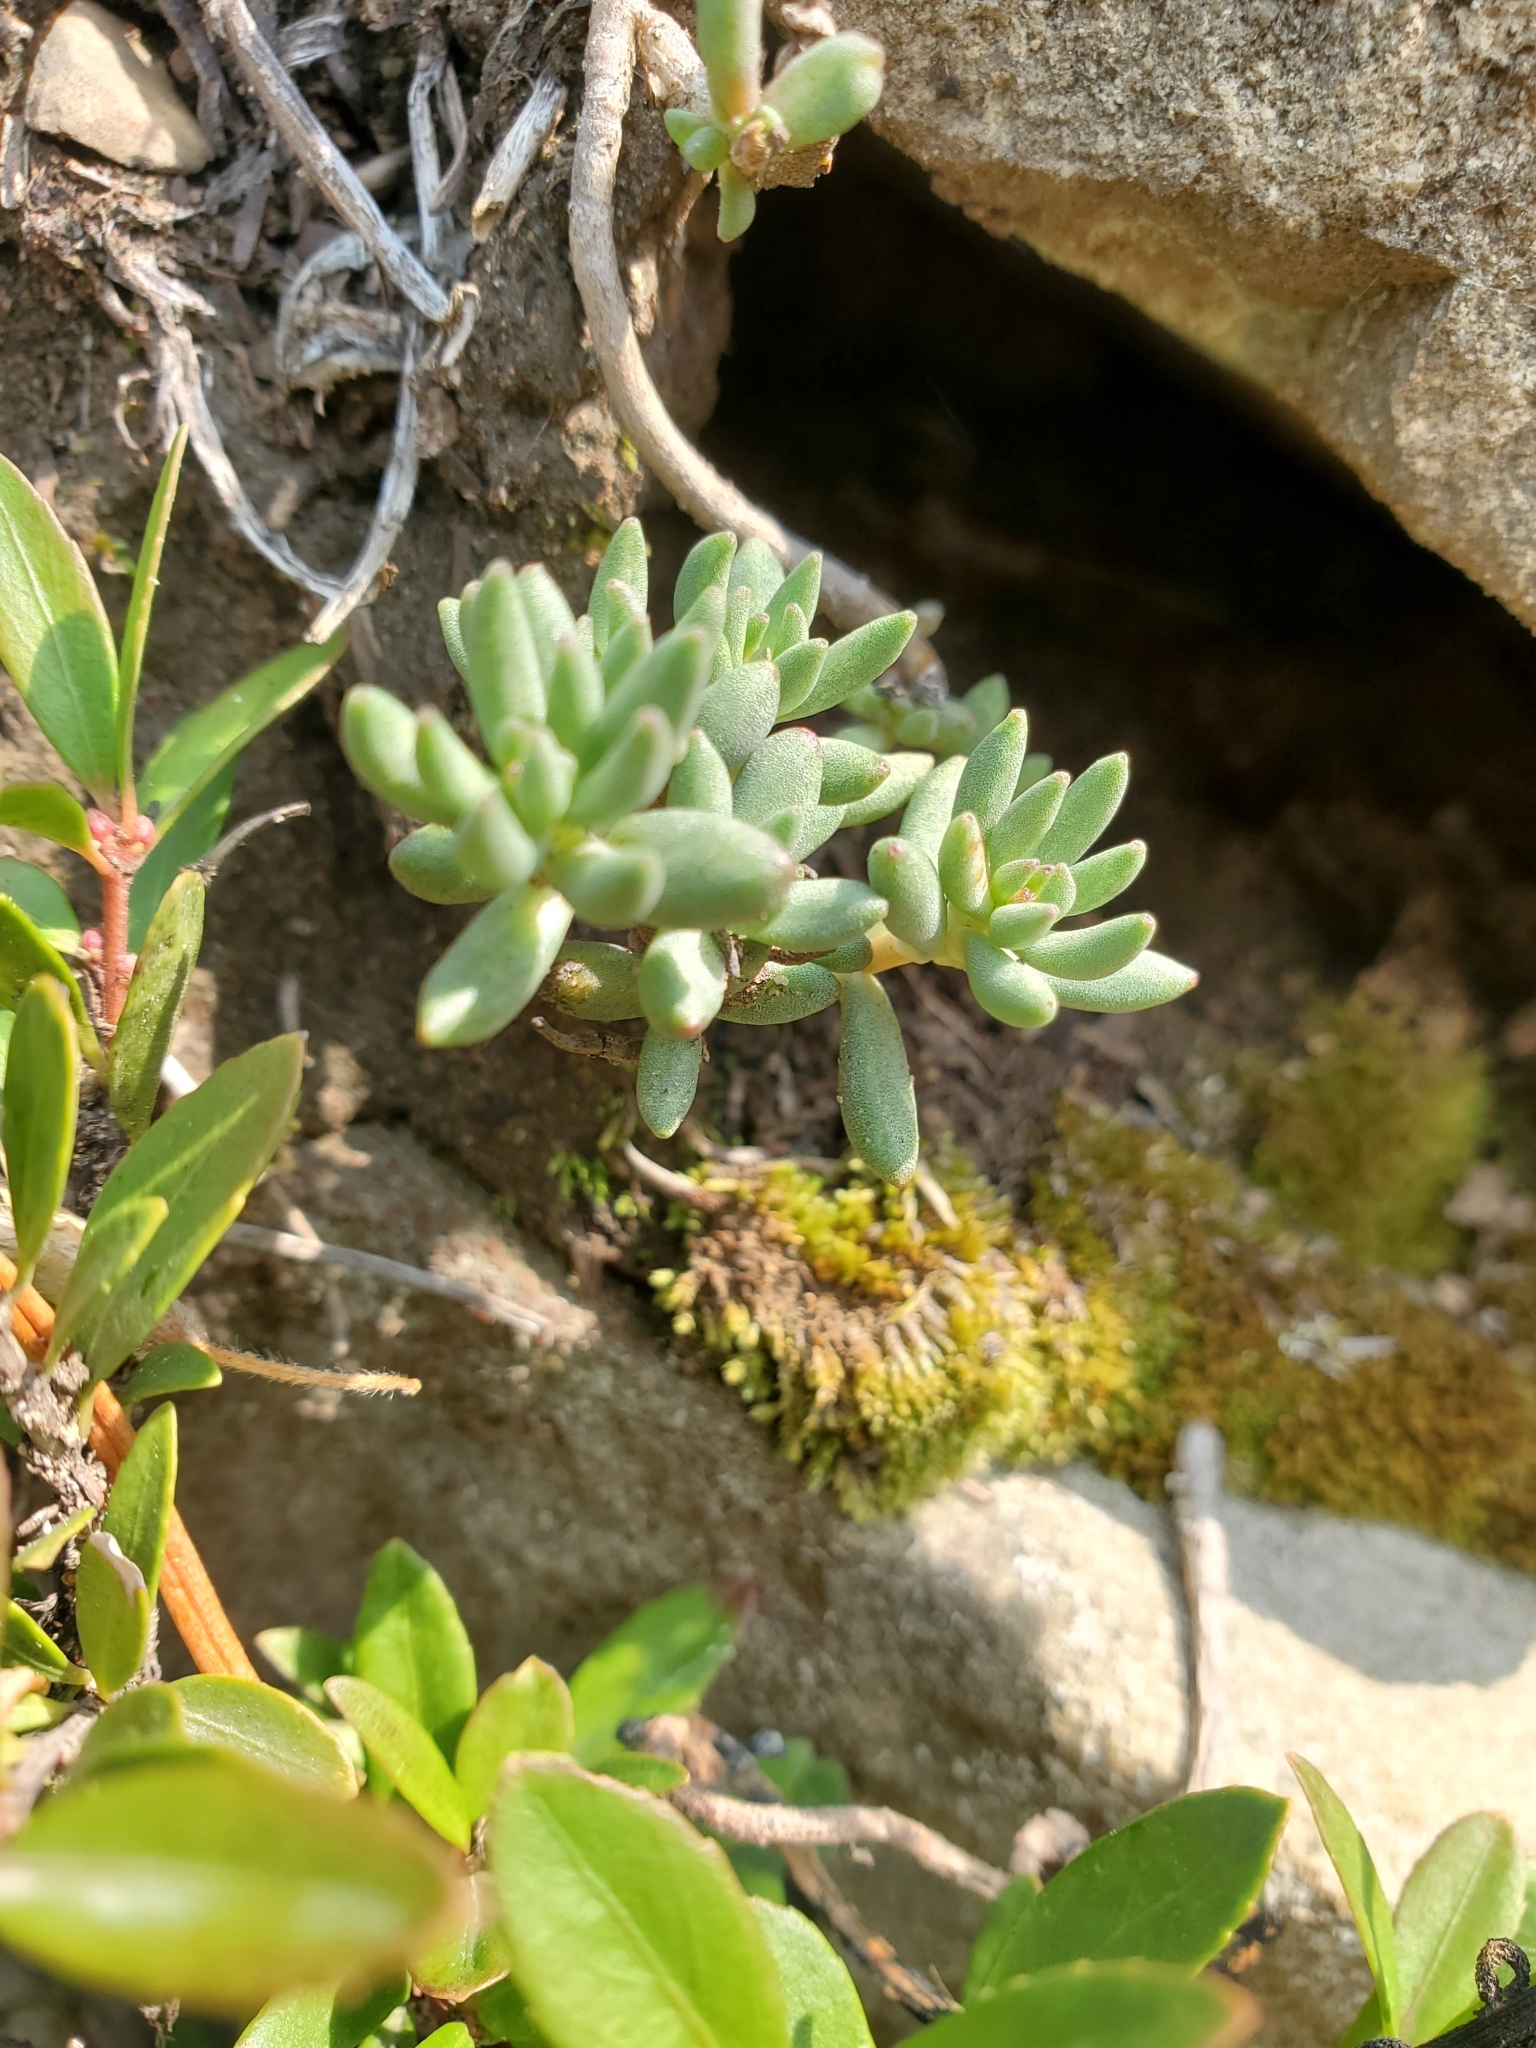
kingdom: Plantae
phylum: Tracheophyta
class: Magnoliopsida
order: Saxifragales
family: Crassulaceae
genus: Sedum
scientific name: Sedum lanceolatum
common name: Common stonecrop
